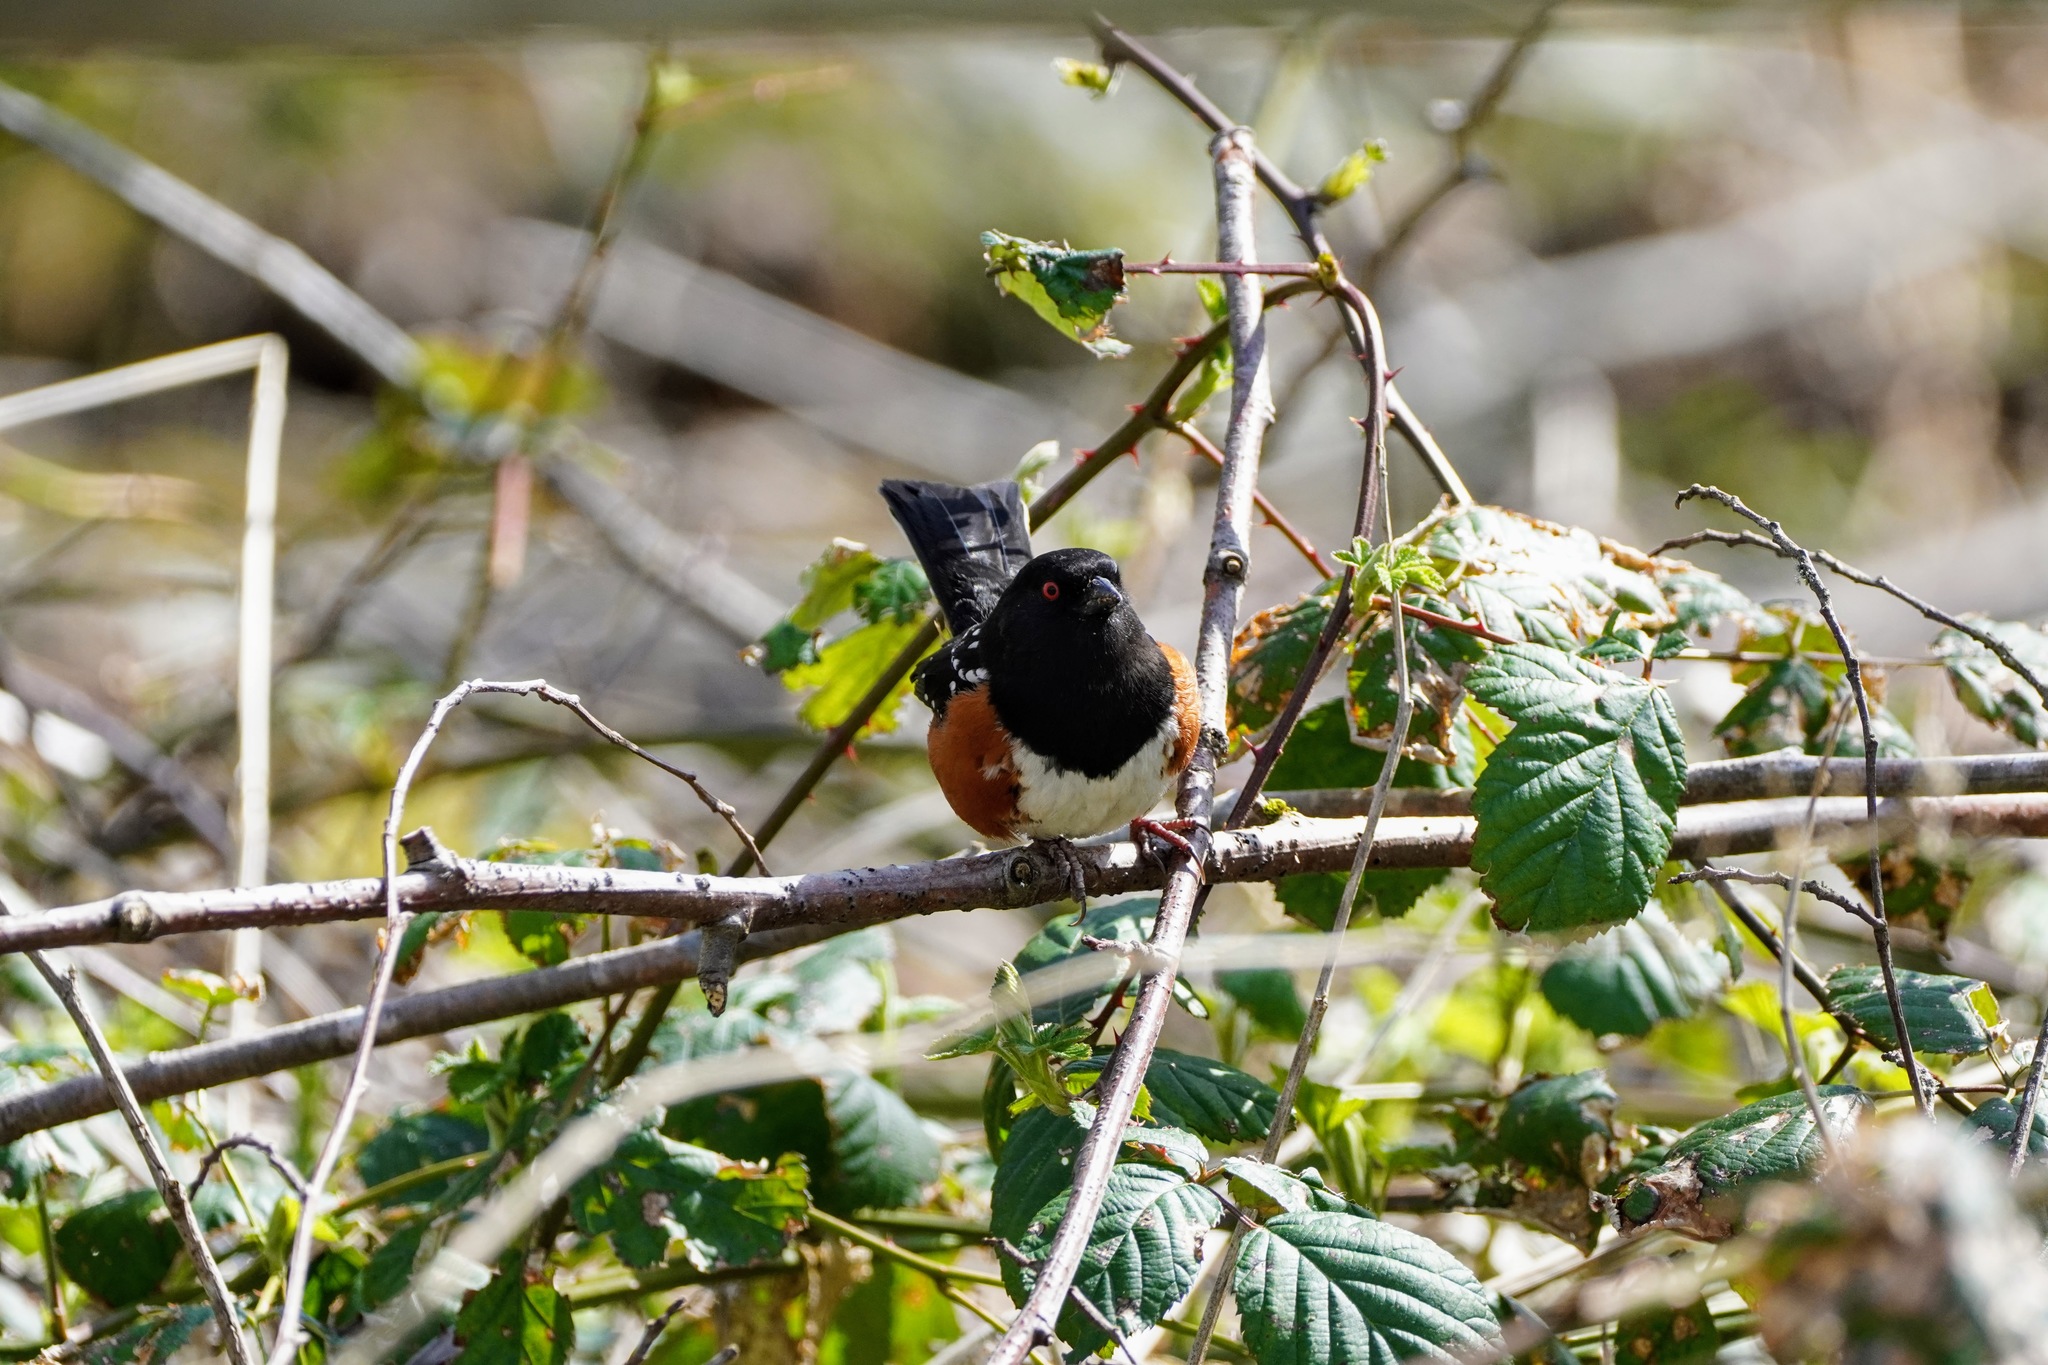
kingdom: Animalia
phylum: Chordata
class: Aves
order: Passeriformes
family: Passerellidae
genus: Pipilo
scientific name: Pipilo maculatus
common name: Spotted towhee
